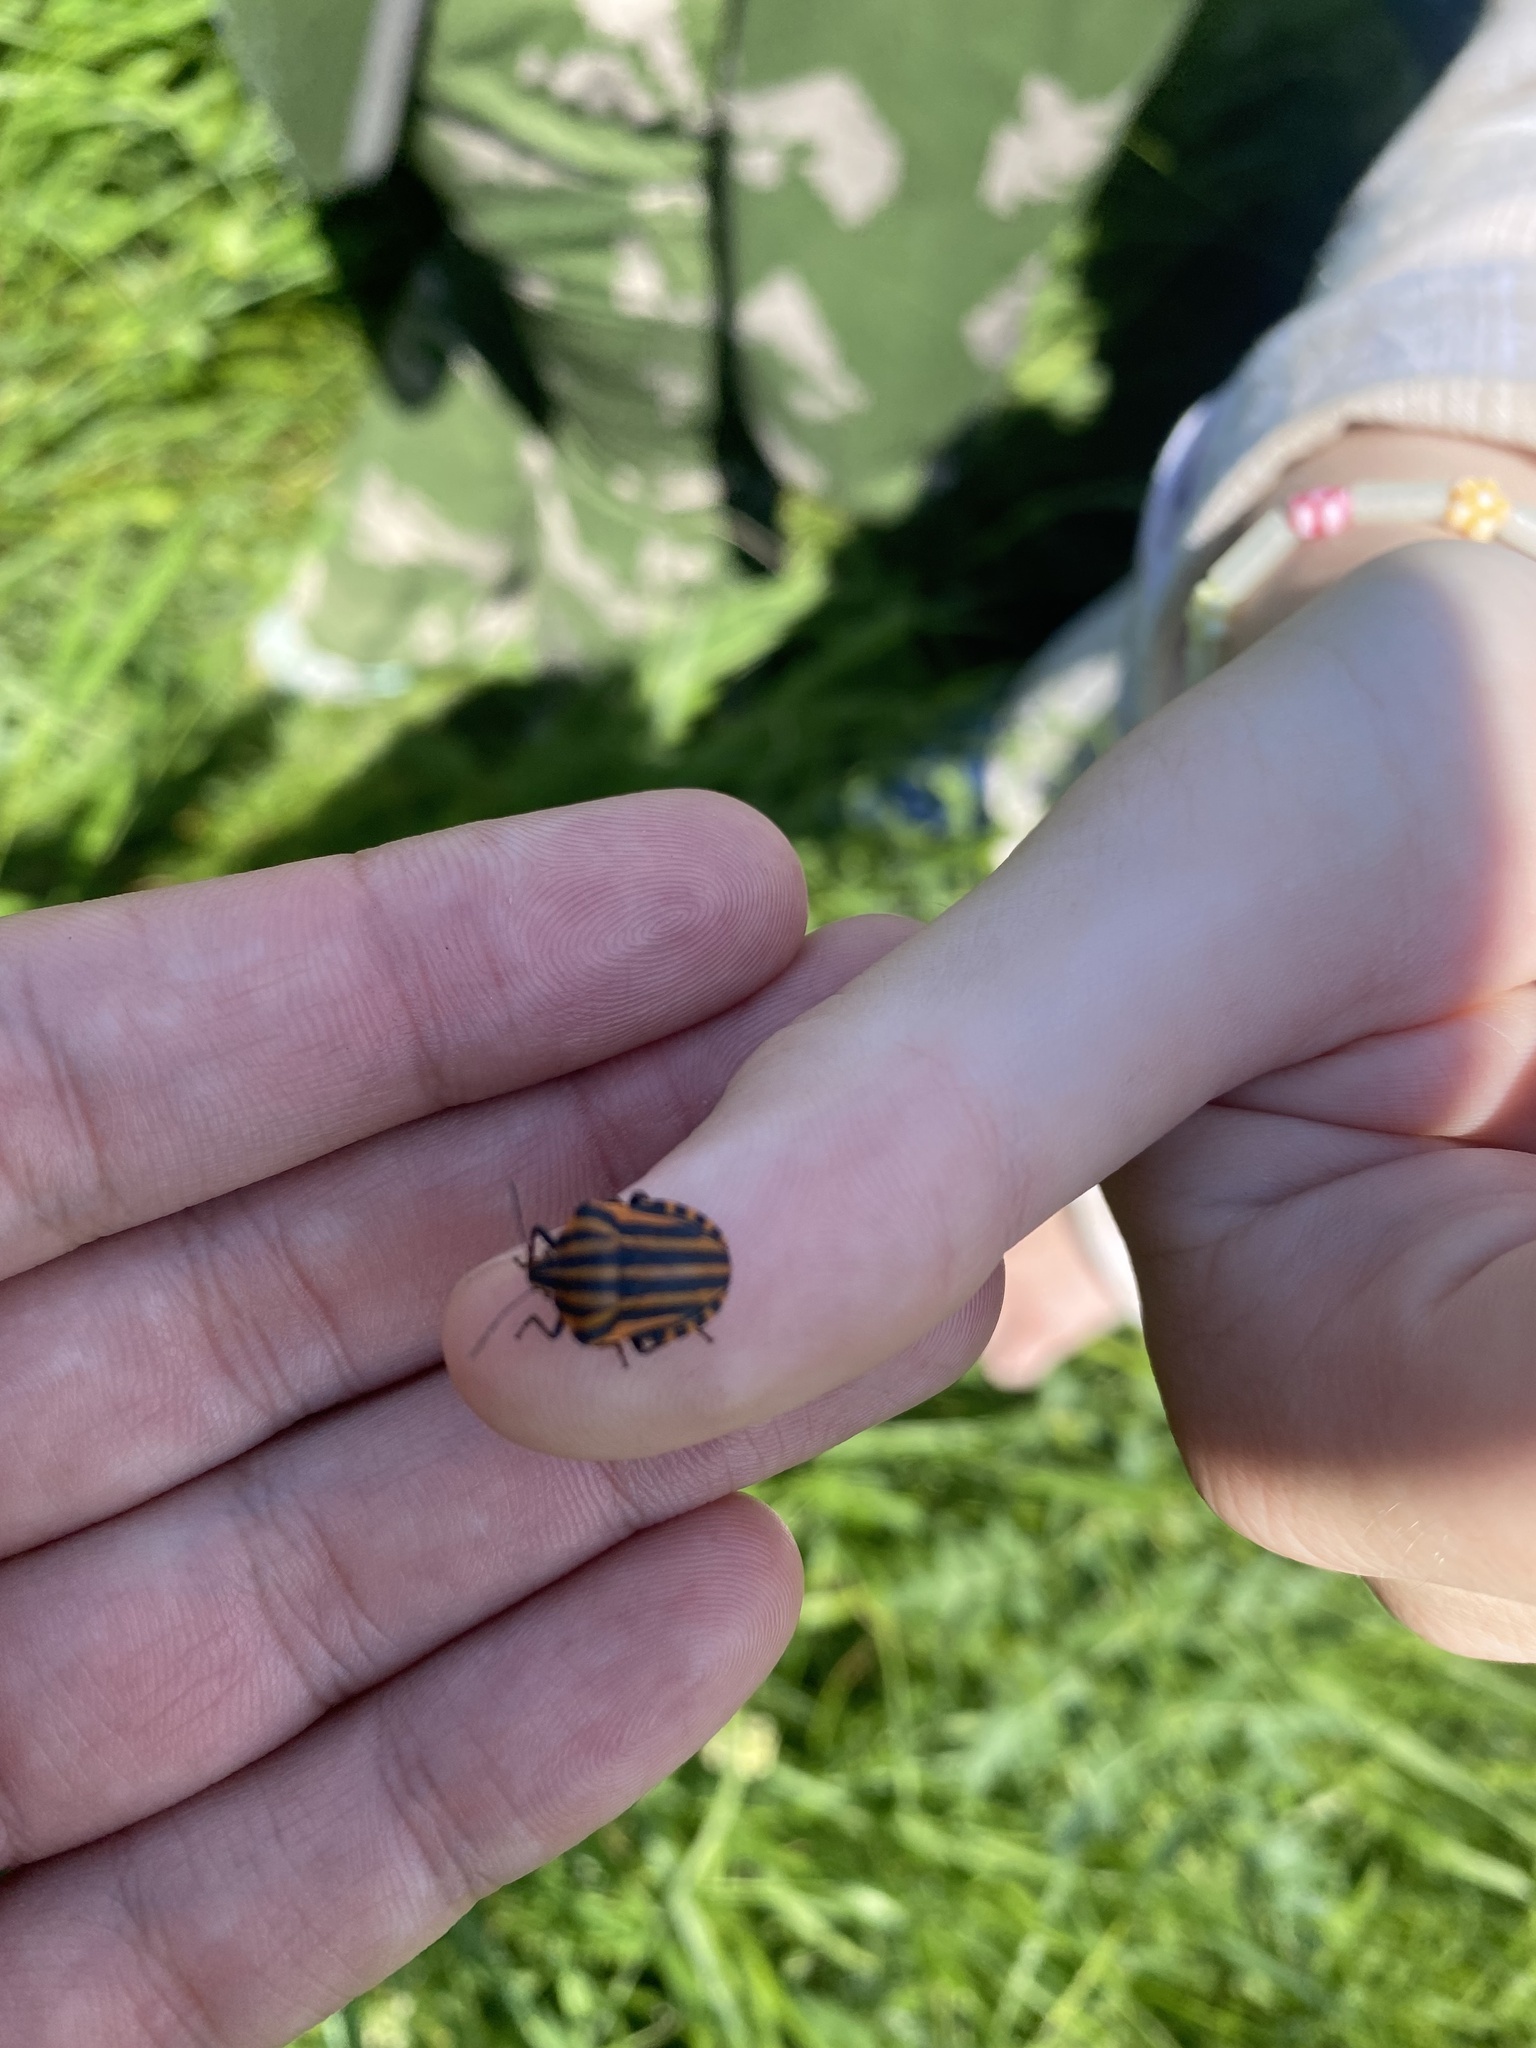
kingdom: Animalia
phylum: Arthropoda
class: Insecta
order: Hemiptera
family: Pentatomidae
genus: Graphosoma
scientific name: Graphosoma italicum
